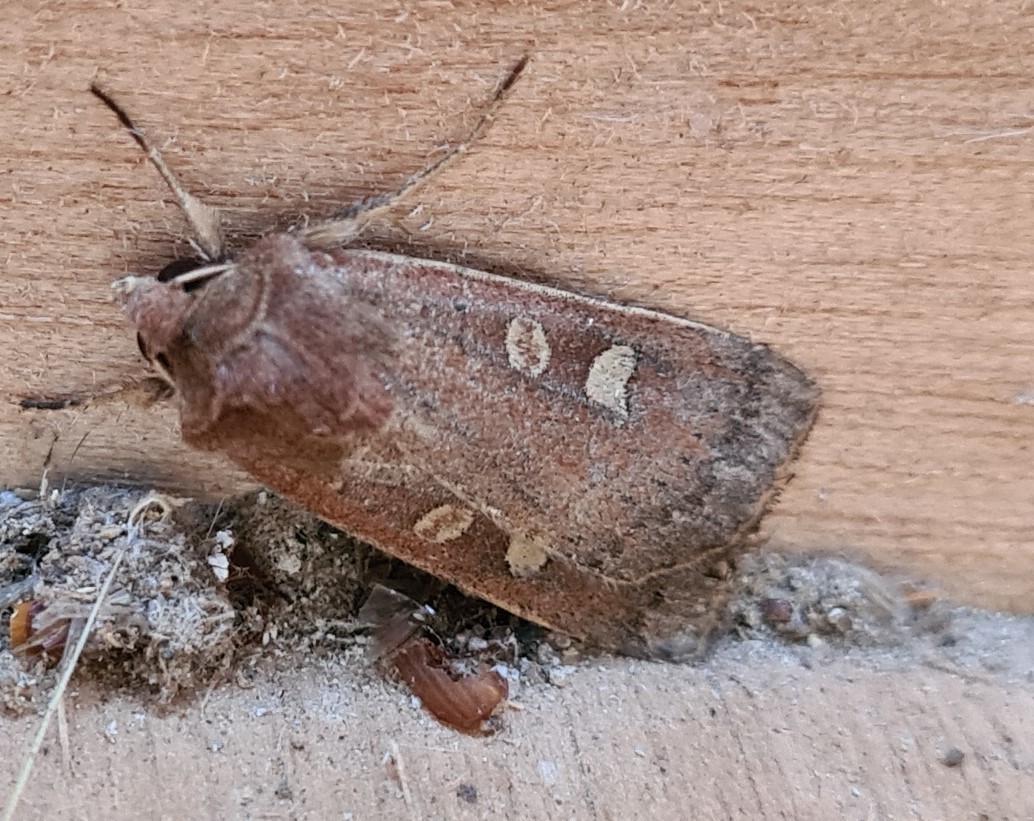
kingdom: Animalia
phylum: Arthropoda
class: Insecta
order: Lepidoptera
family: Noctuidae
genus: Xestia
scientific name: Xestia xanthographa
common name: Square-spot rustic
